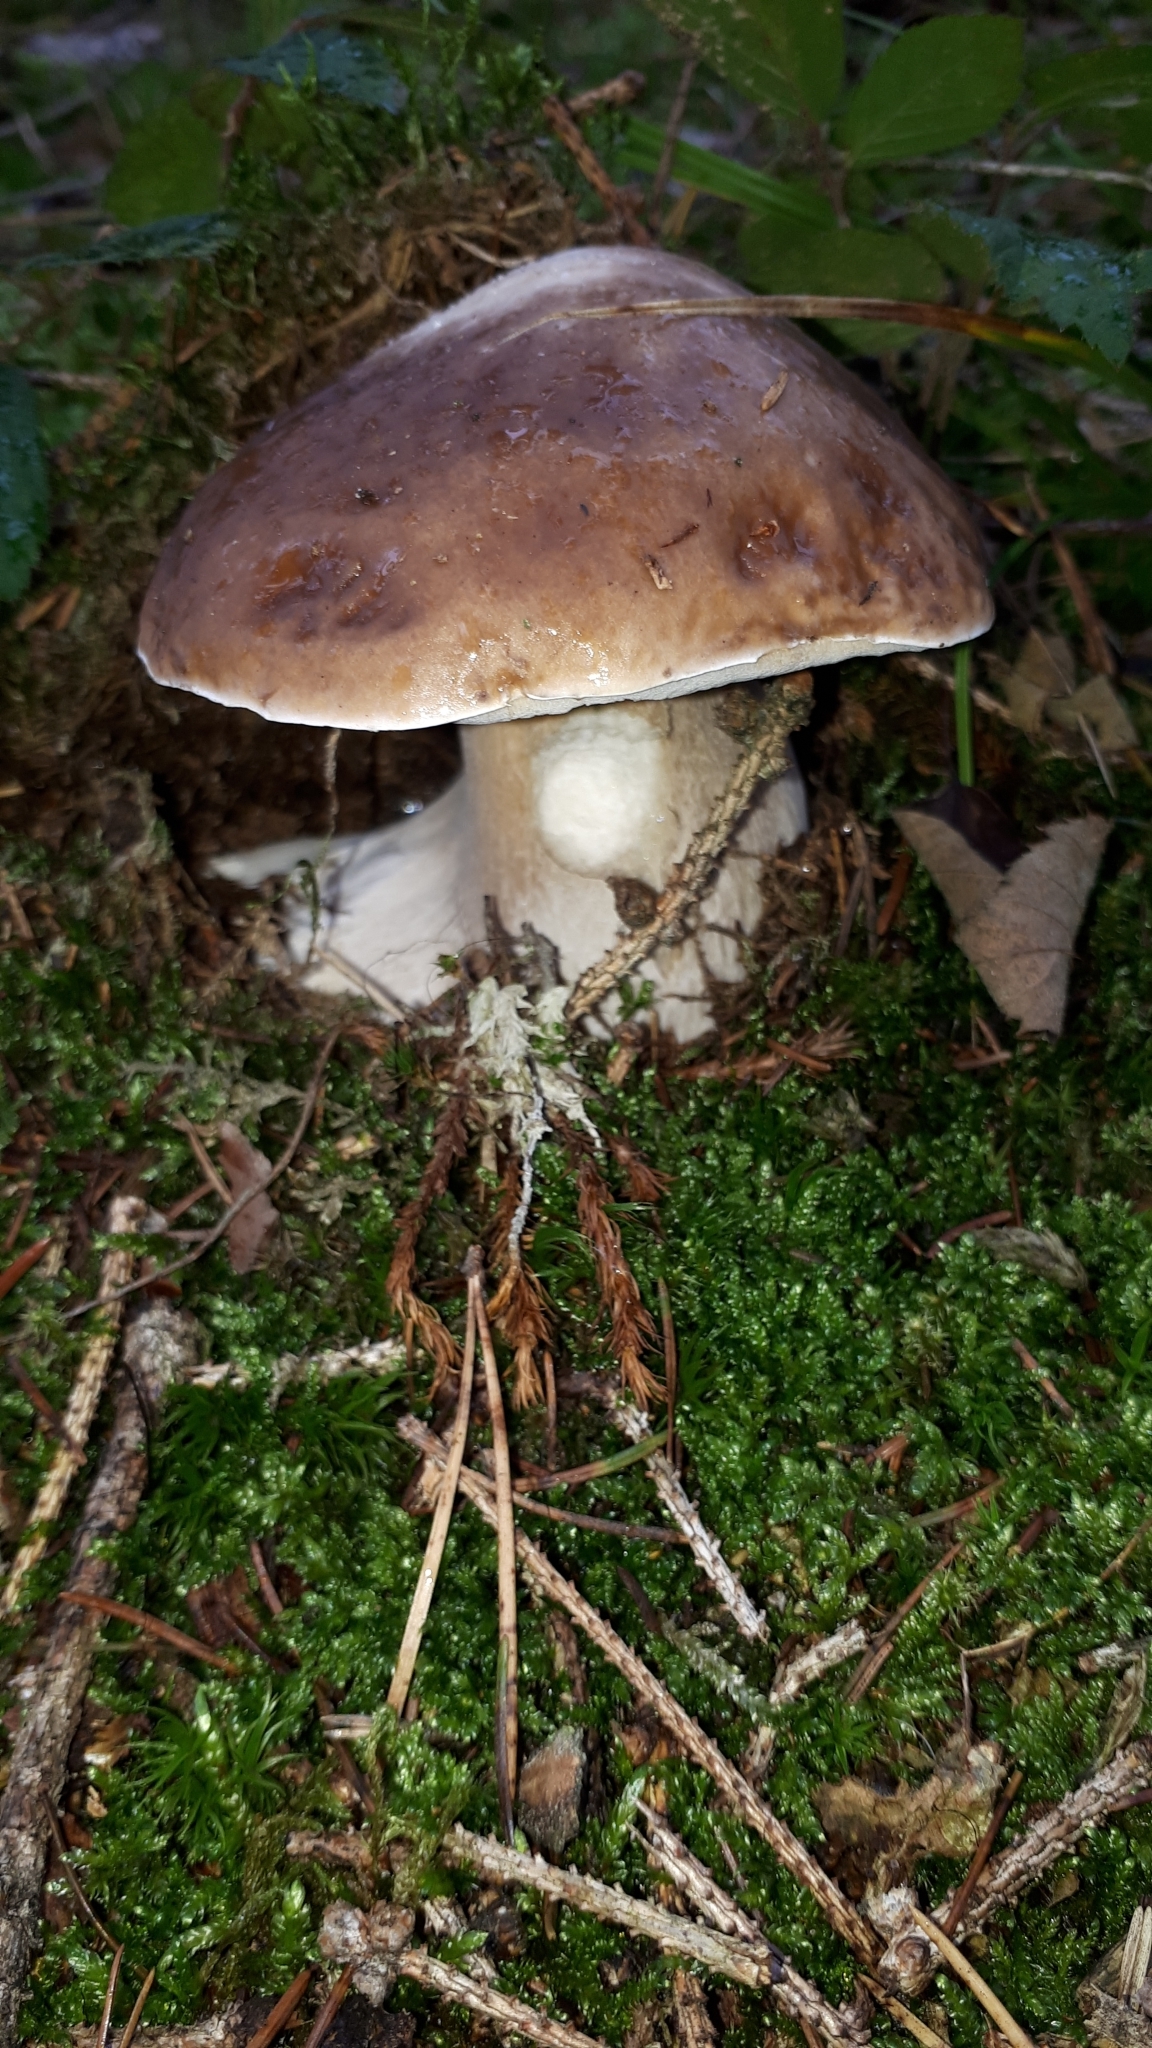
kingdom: Fungi
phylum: Basidiomycota
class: Agaricomycetes
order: Boletales
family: Boletaceae
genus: Boletus
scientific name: Boletus edulis
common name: Cep
